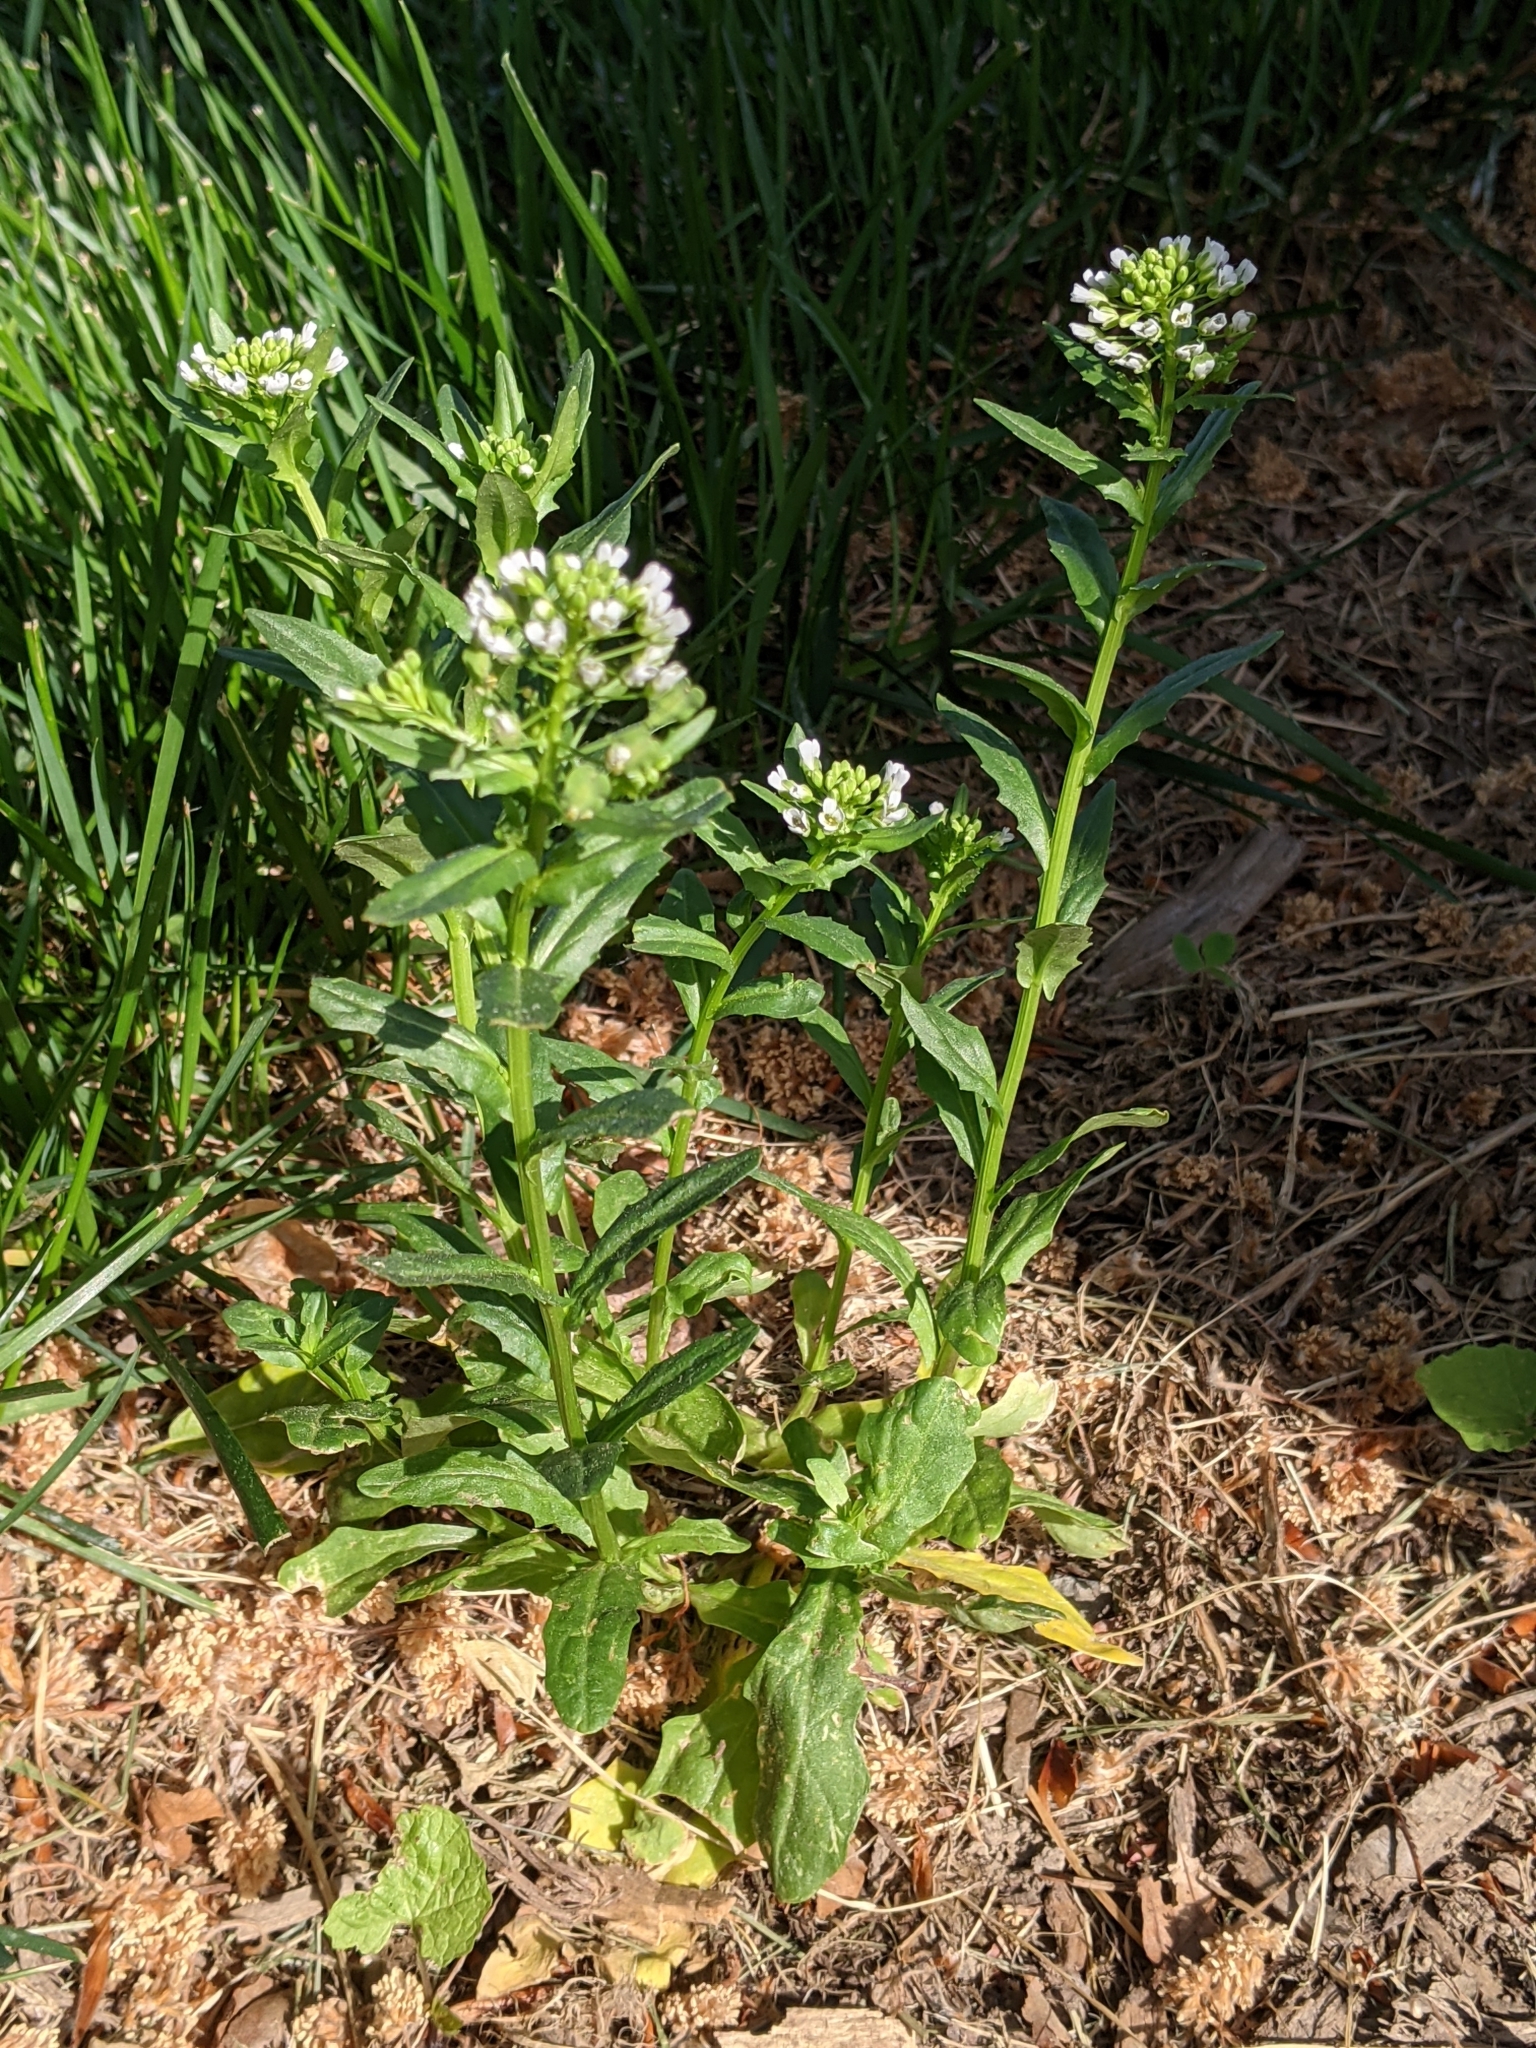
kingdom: Plantae
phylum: Tracheophyta
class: Magnoliopsida
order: Brassicales
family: Brassicaceae
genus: Thlaspi
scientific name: Thlaspi arvense
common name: Field pennycress
